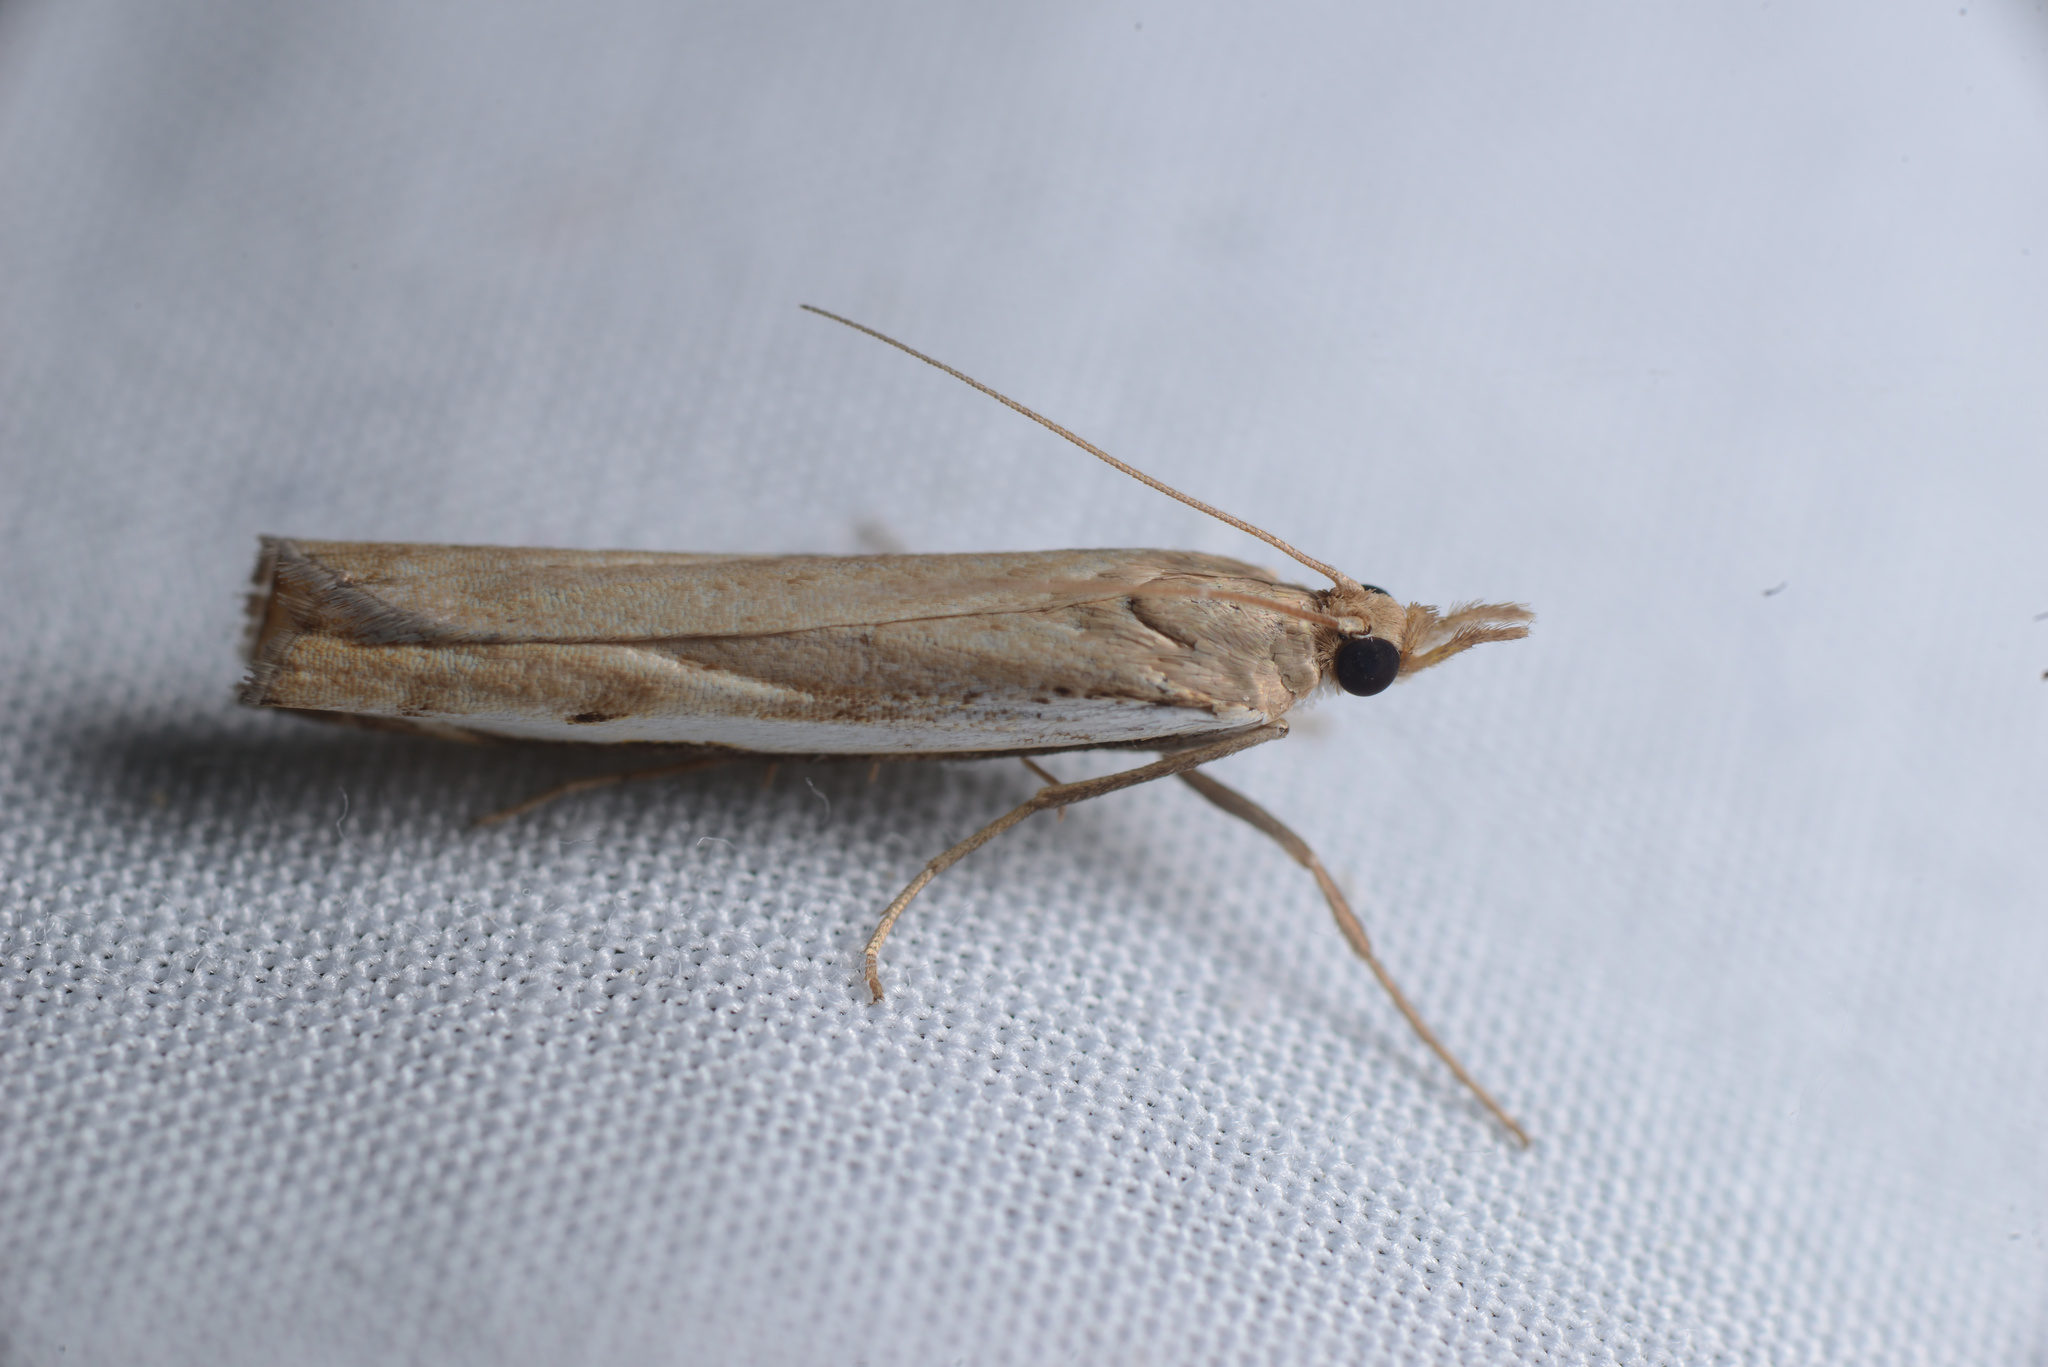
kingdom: Animalia
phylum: Arthropoda
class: Insecta
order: Lepidoptera
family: Crambidae
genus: Orocrambus
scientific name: Orocrambus flexuosellus
